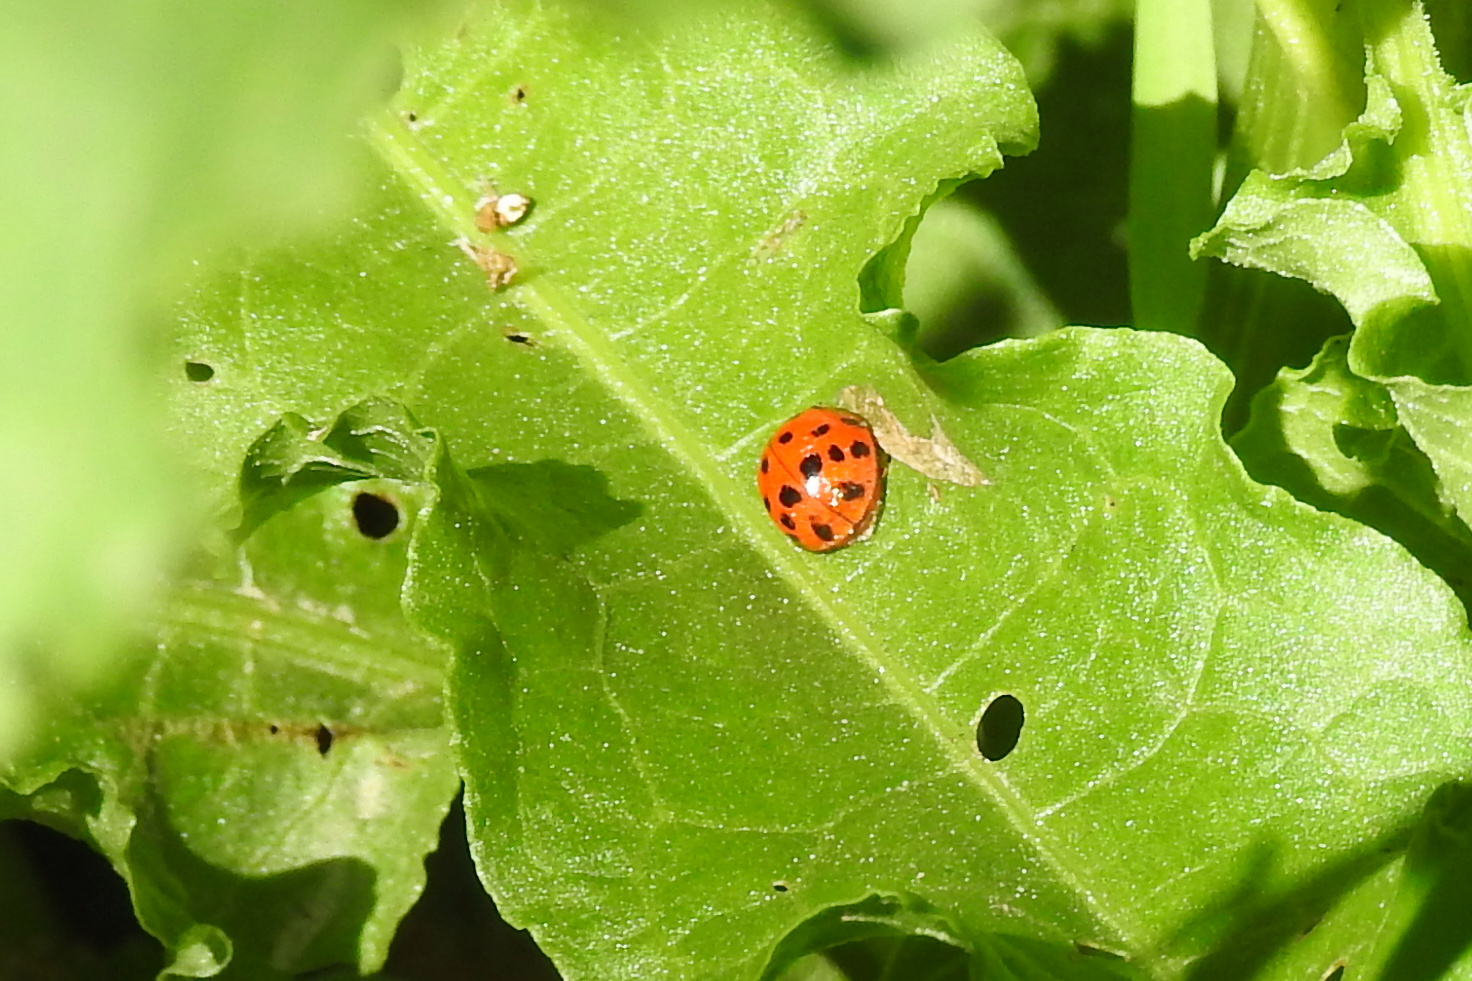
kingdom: Animalia
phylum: Arthropoda
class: Insecta
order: Coleoptera
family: Coccinellidae
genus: Harmonia
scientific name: Harmonia axyridis
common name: Harlequin ladybird
